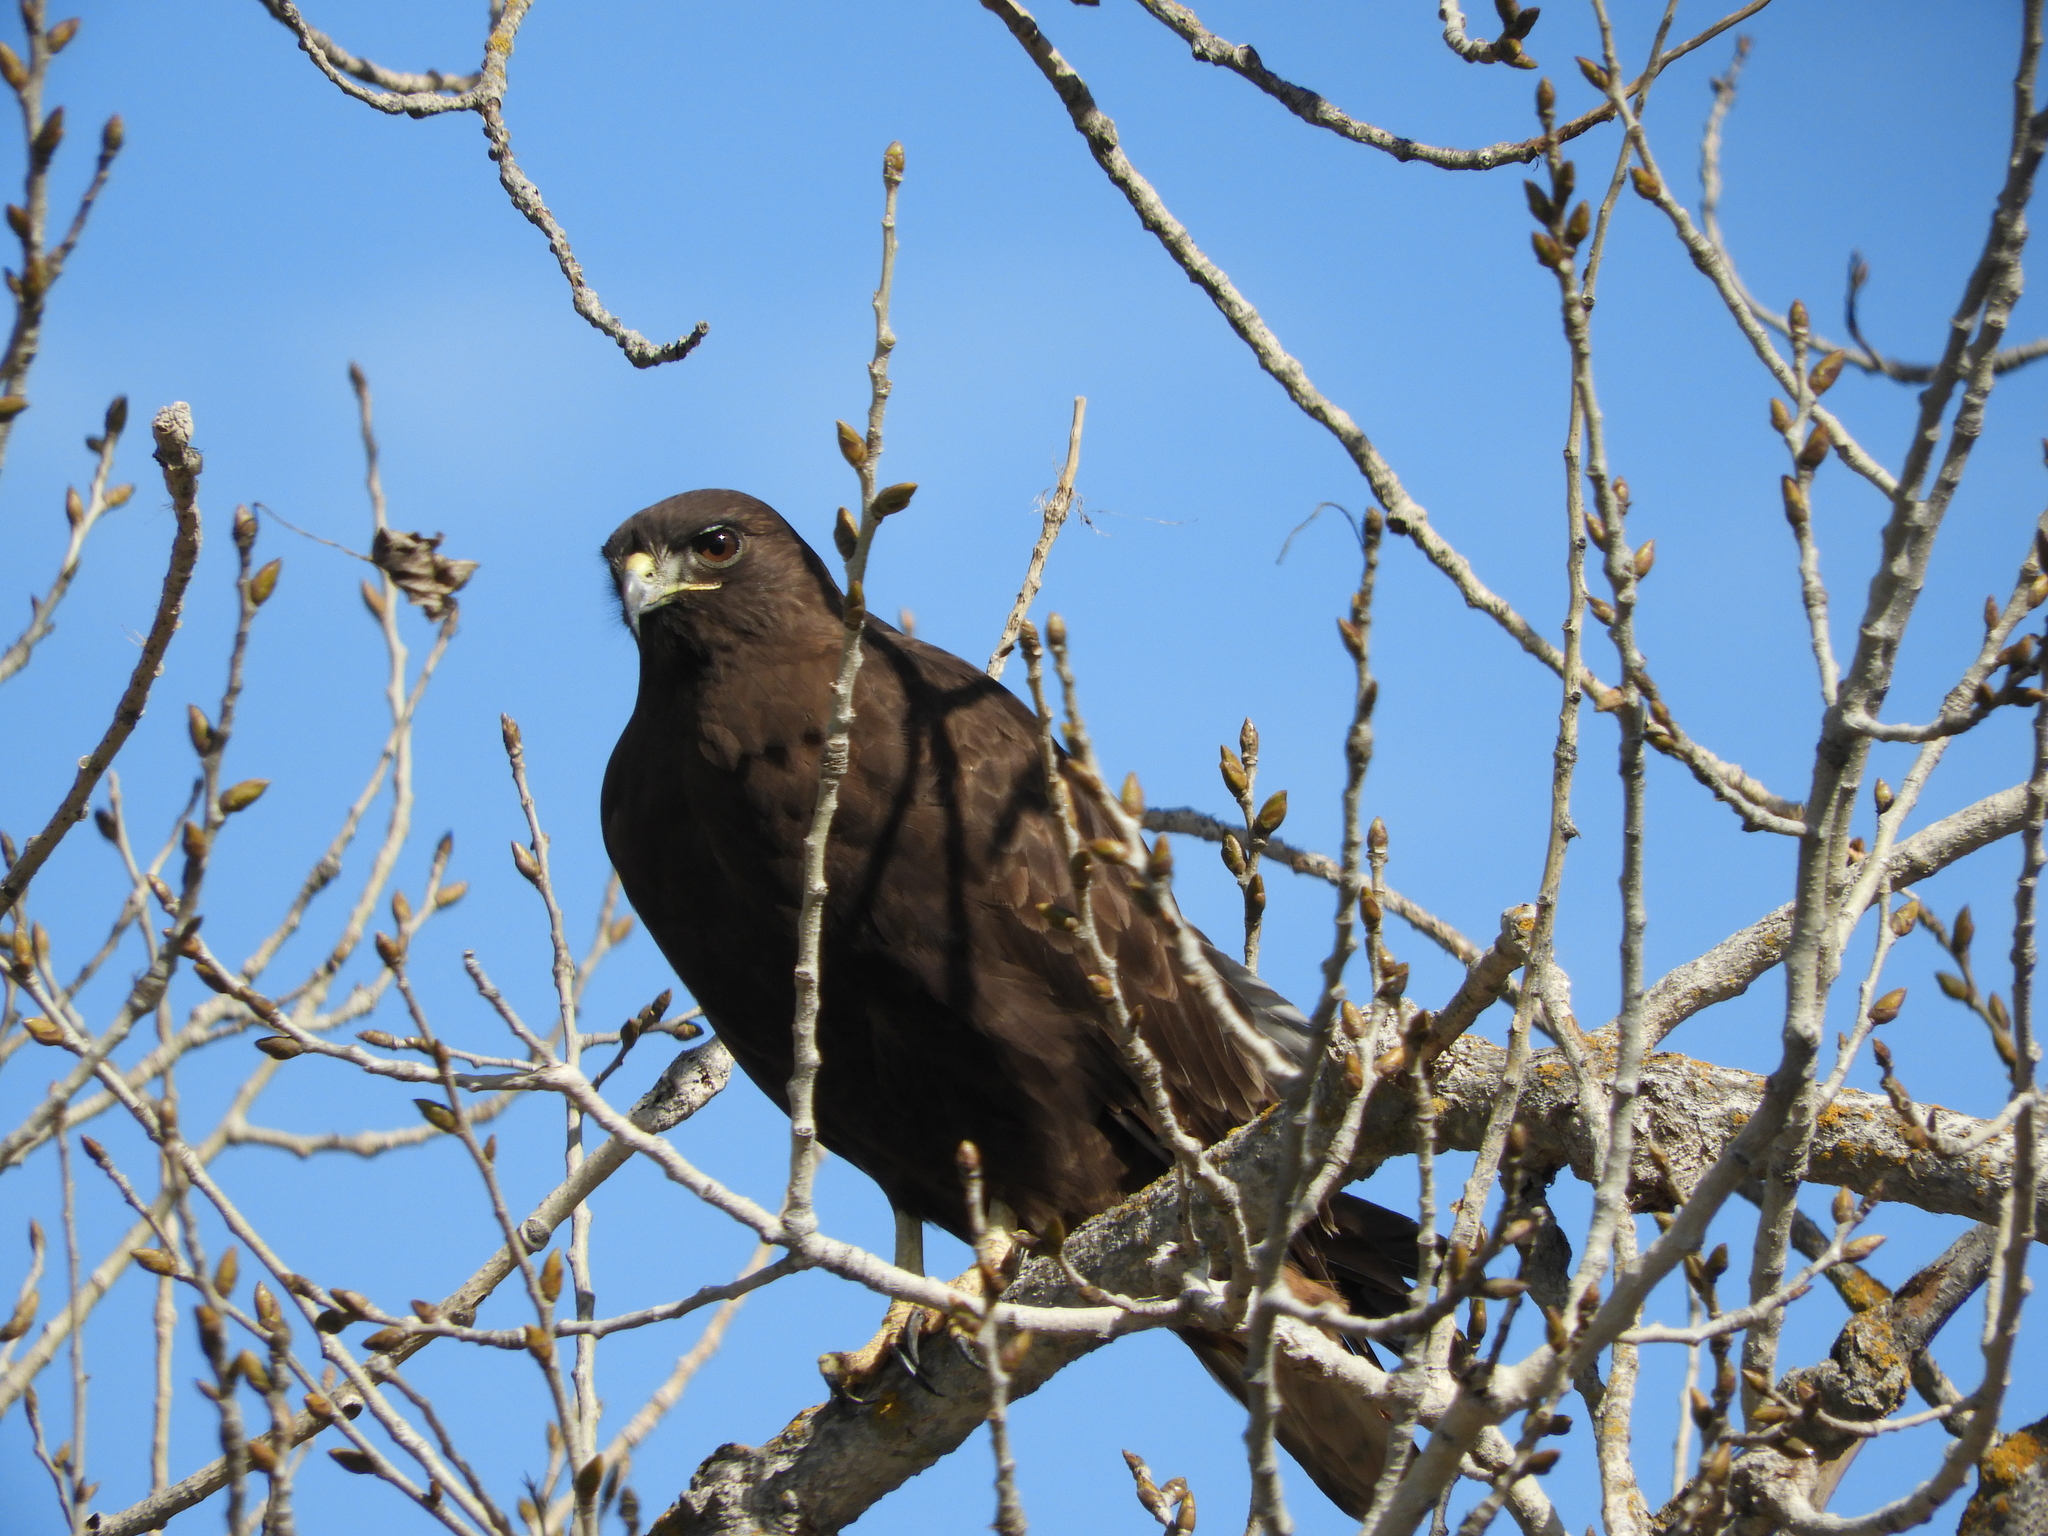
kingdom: Animalia
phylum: Chordata
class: Aves
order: Accipitriformes
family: Accipitridae
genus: Buteo
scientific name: Buteo jamaicensis
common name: Red-tailed hawk
